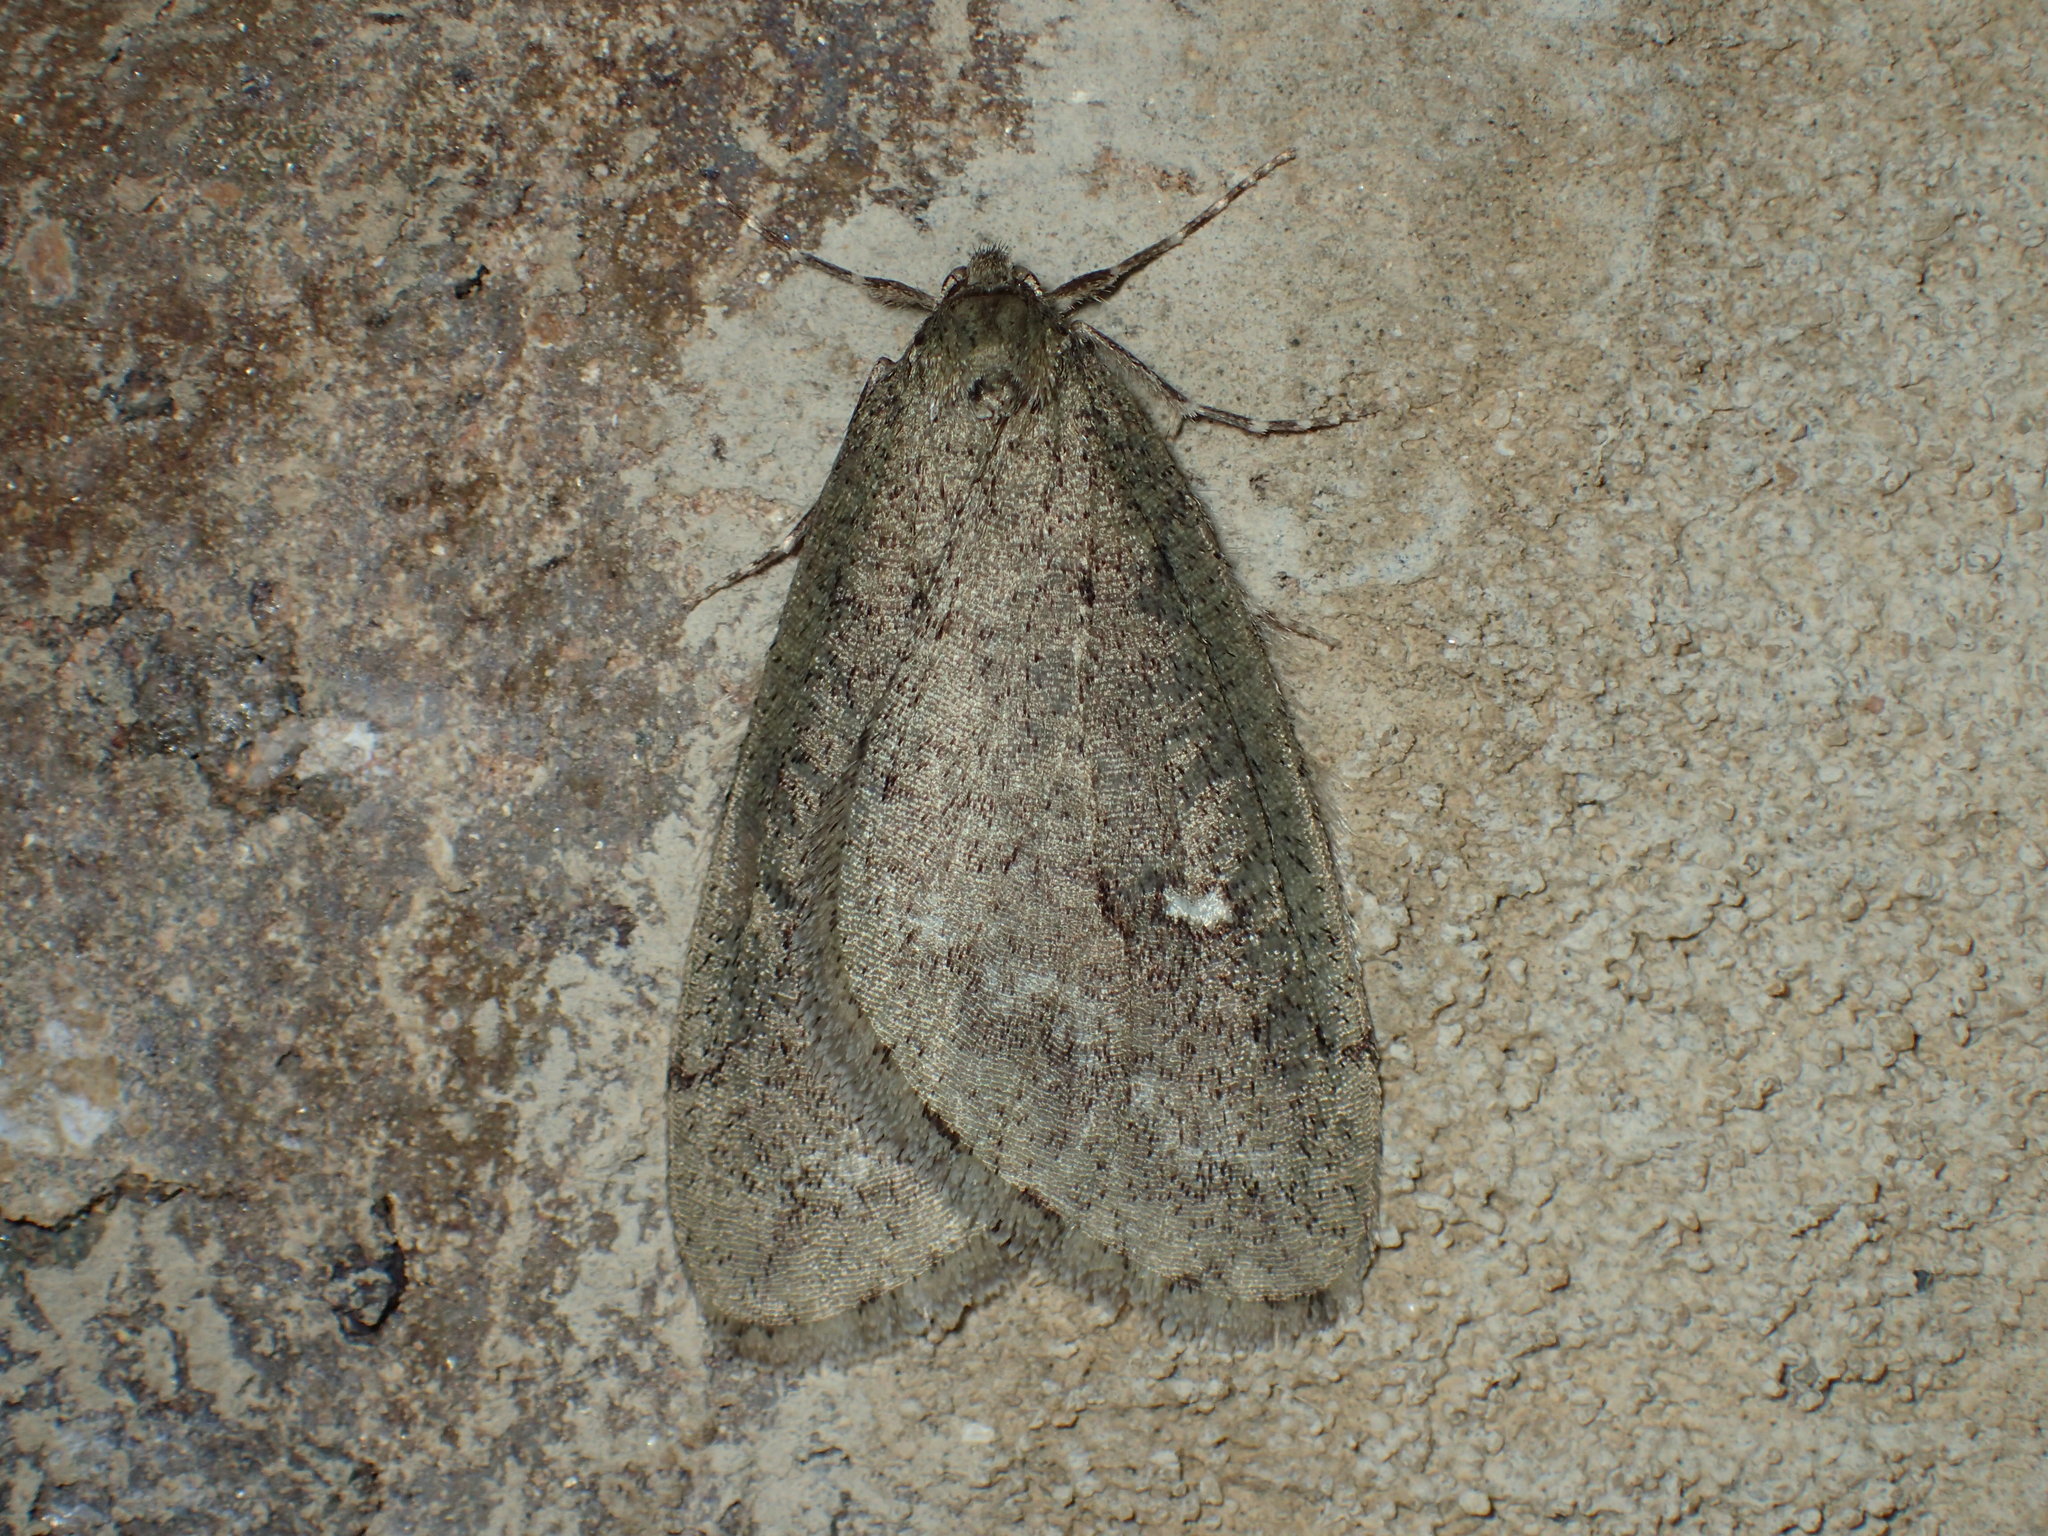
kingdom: Animalia
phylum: Arthropoda
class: Insecta
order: Lepidoptera
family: Geometridae
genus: Paleacrita
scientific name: Paleacrita merriccata
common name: White-spotted canker worm
